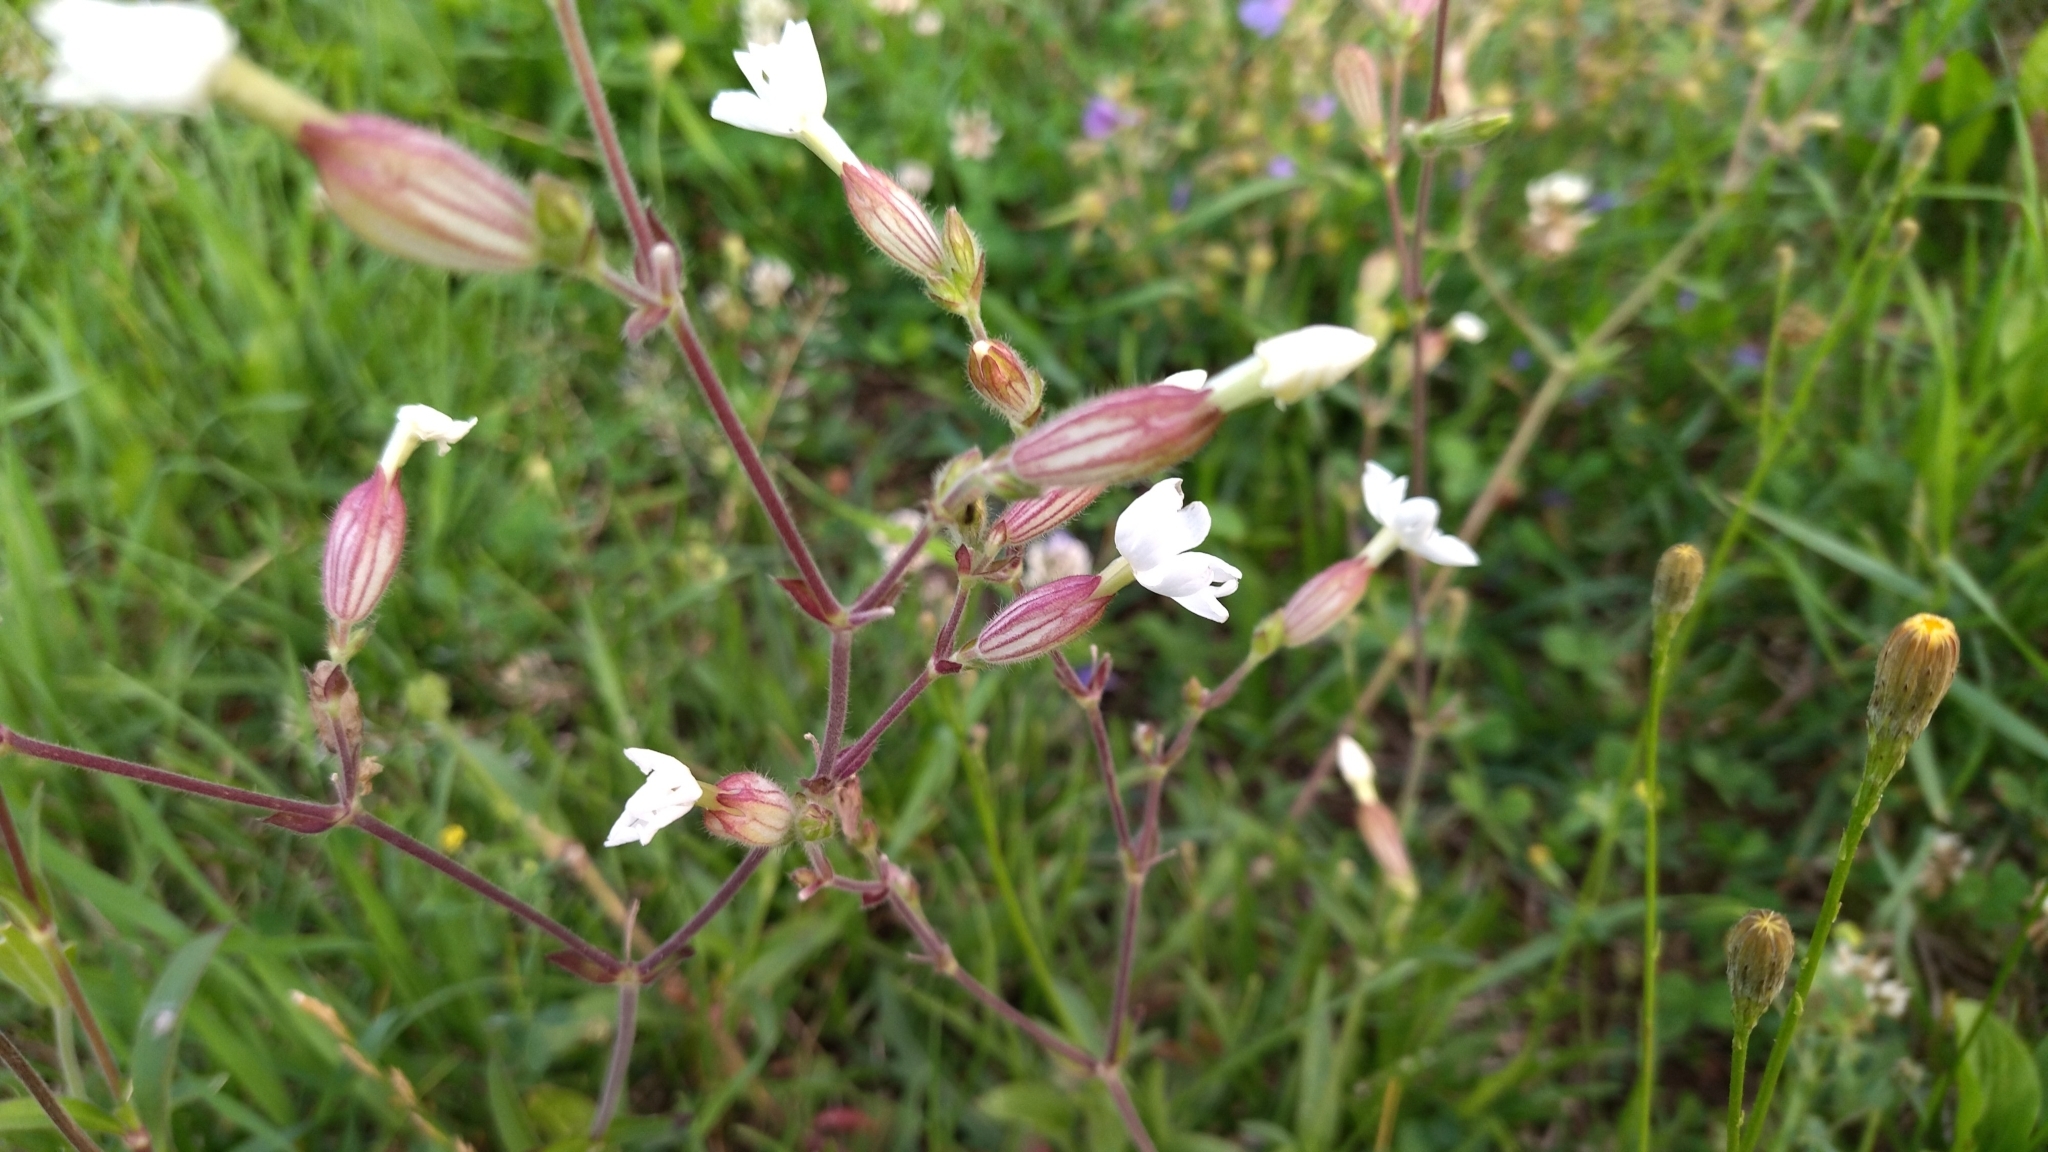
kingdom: Plantae
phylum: Tracheophyta
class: Magnoliopsida
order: Caryophyllales
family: Caryophyllaceae
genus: Silene
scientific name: Silene latifolia
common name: White campion
